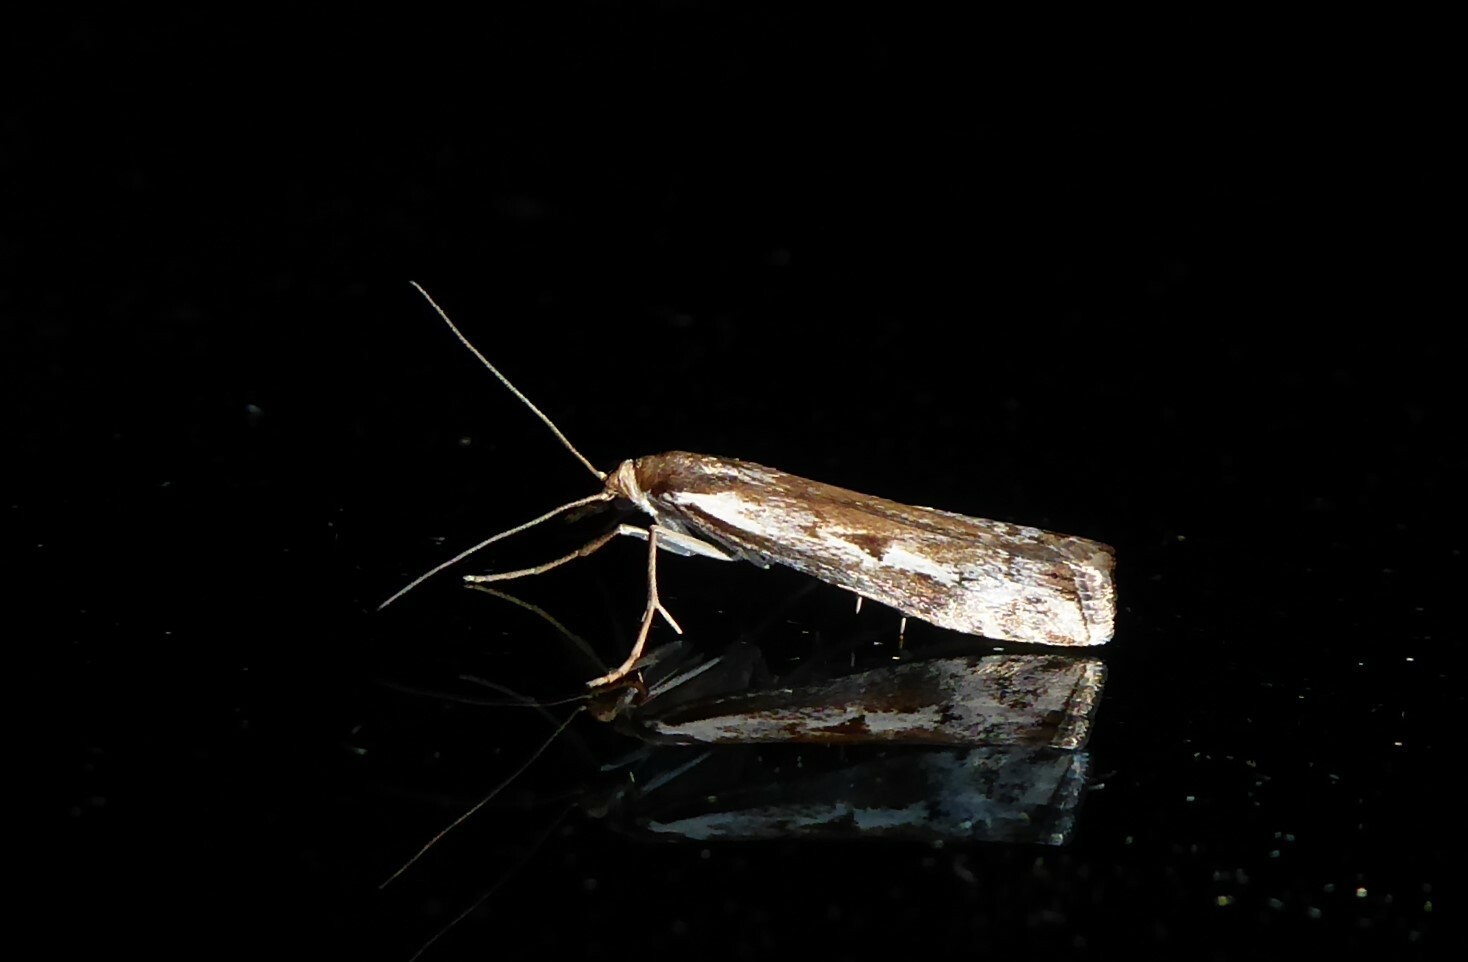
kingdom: Animalia
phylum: Arthropoda
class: Insecta
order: Lepidoptera
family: Crambidae
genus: Orocrambus
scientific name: Orocrambus vulgaris
